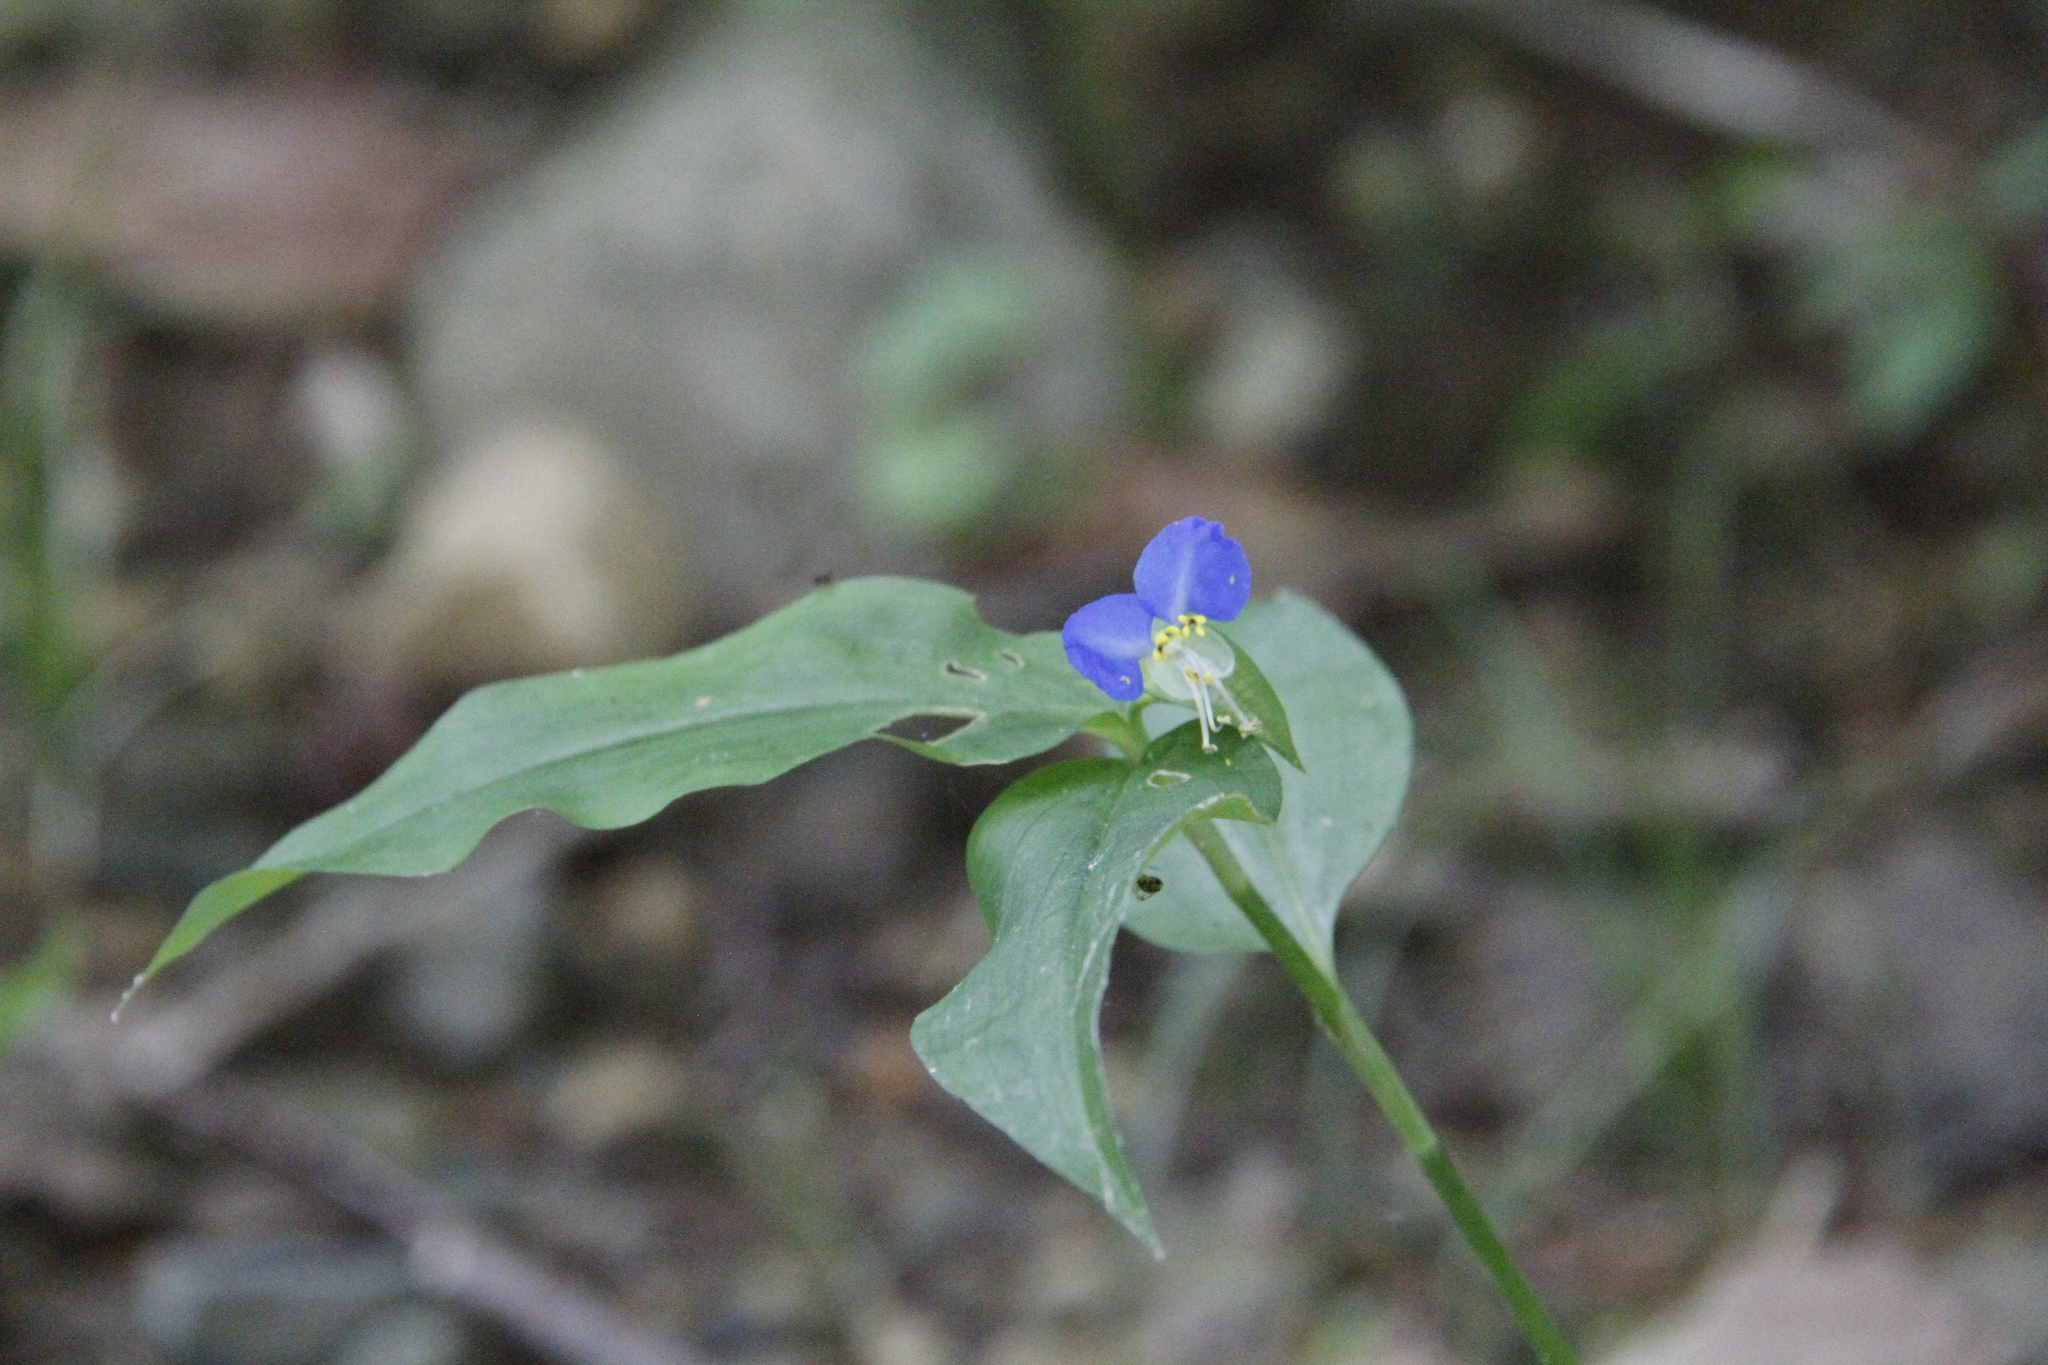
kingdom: Plantae
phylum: Tracheophyta
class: Liliopsida
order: Commelinales
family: Commelinaceae
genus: Commelina
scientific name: Commelina communis
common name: Asiatic dayflower
